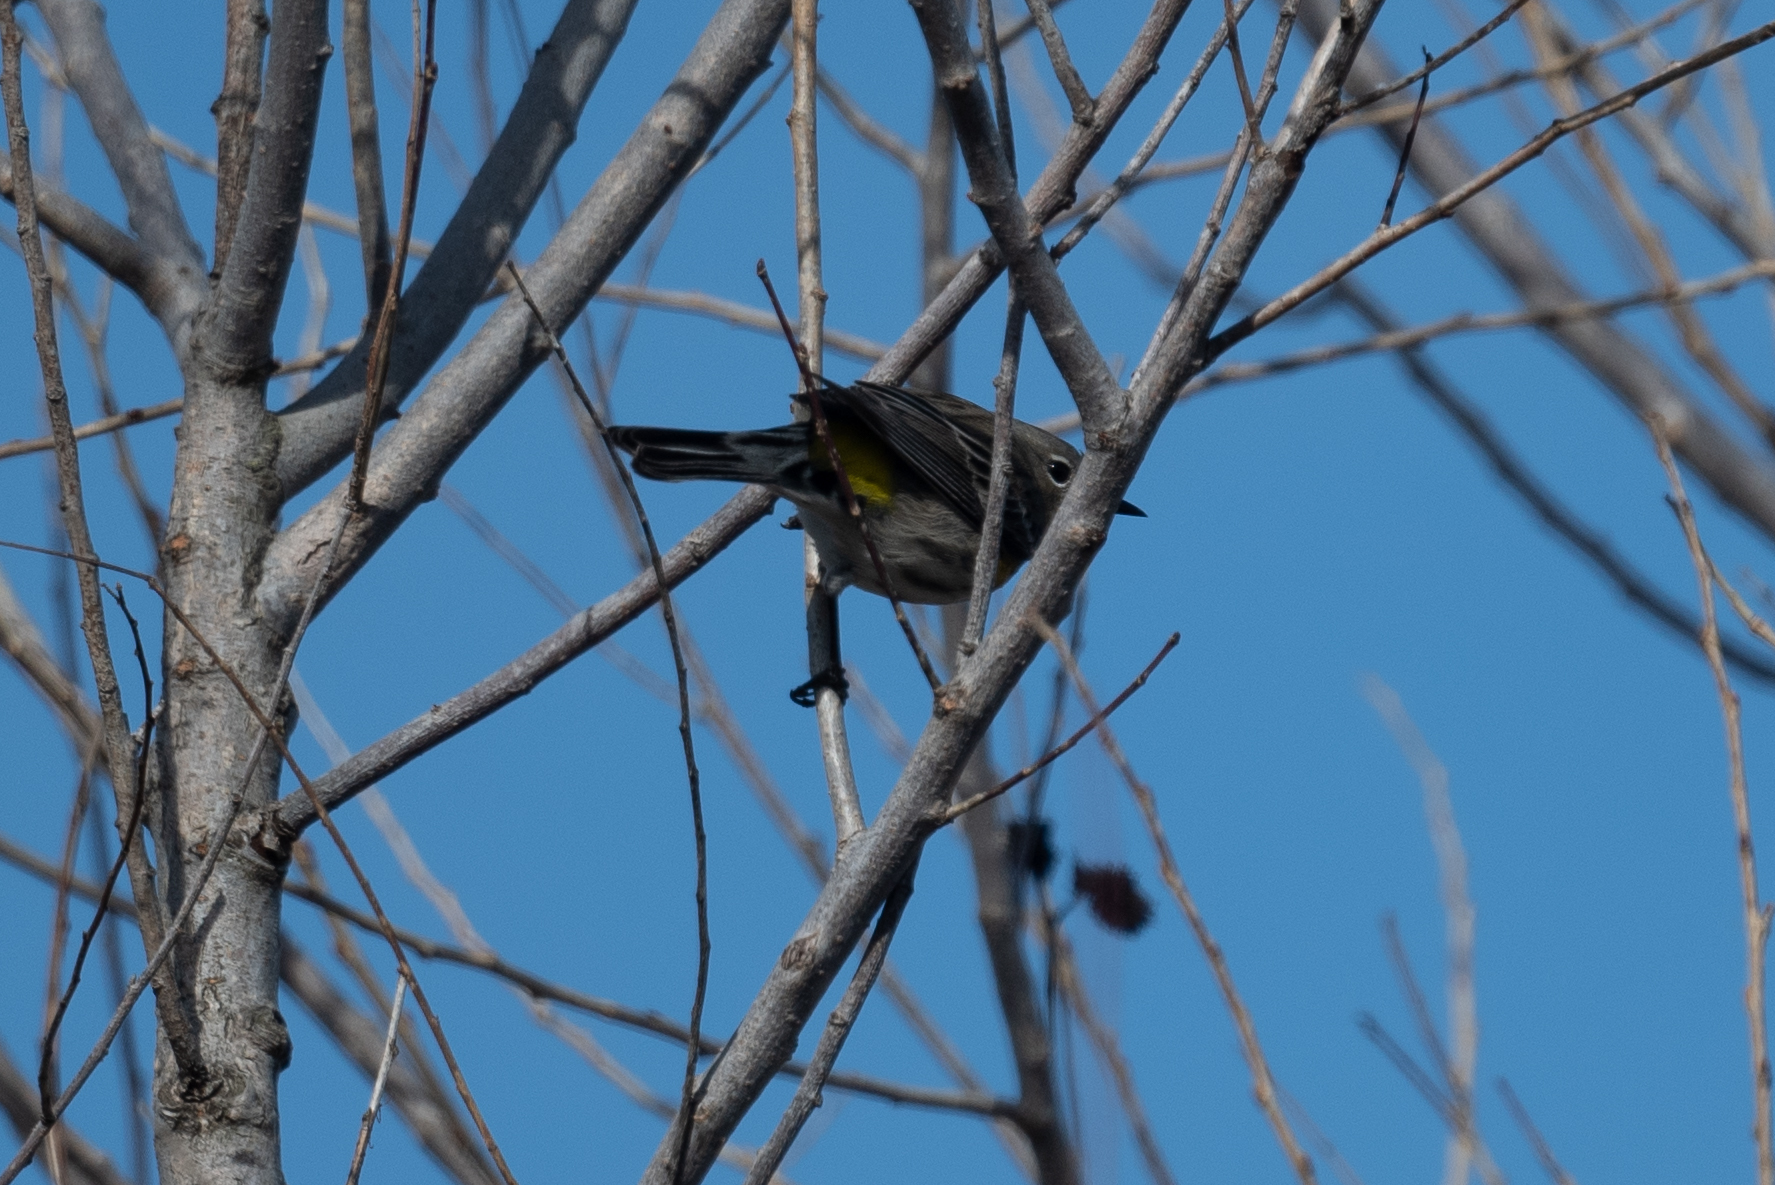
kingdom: Animalia
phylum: Chordata
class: Aves
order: Passeriformes
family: Parulidae
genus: Setophaga
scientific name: Setophaga coronata
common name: Myrtle warbler
